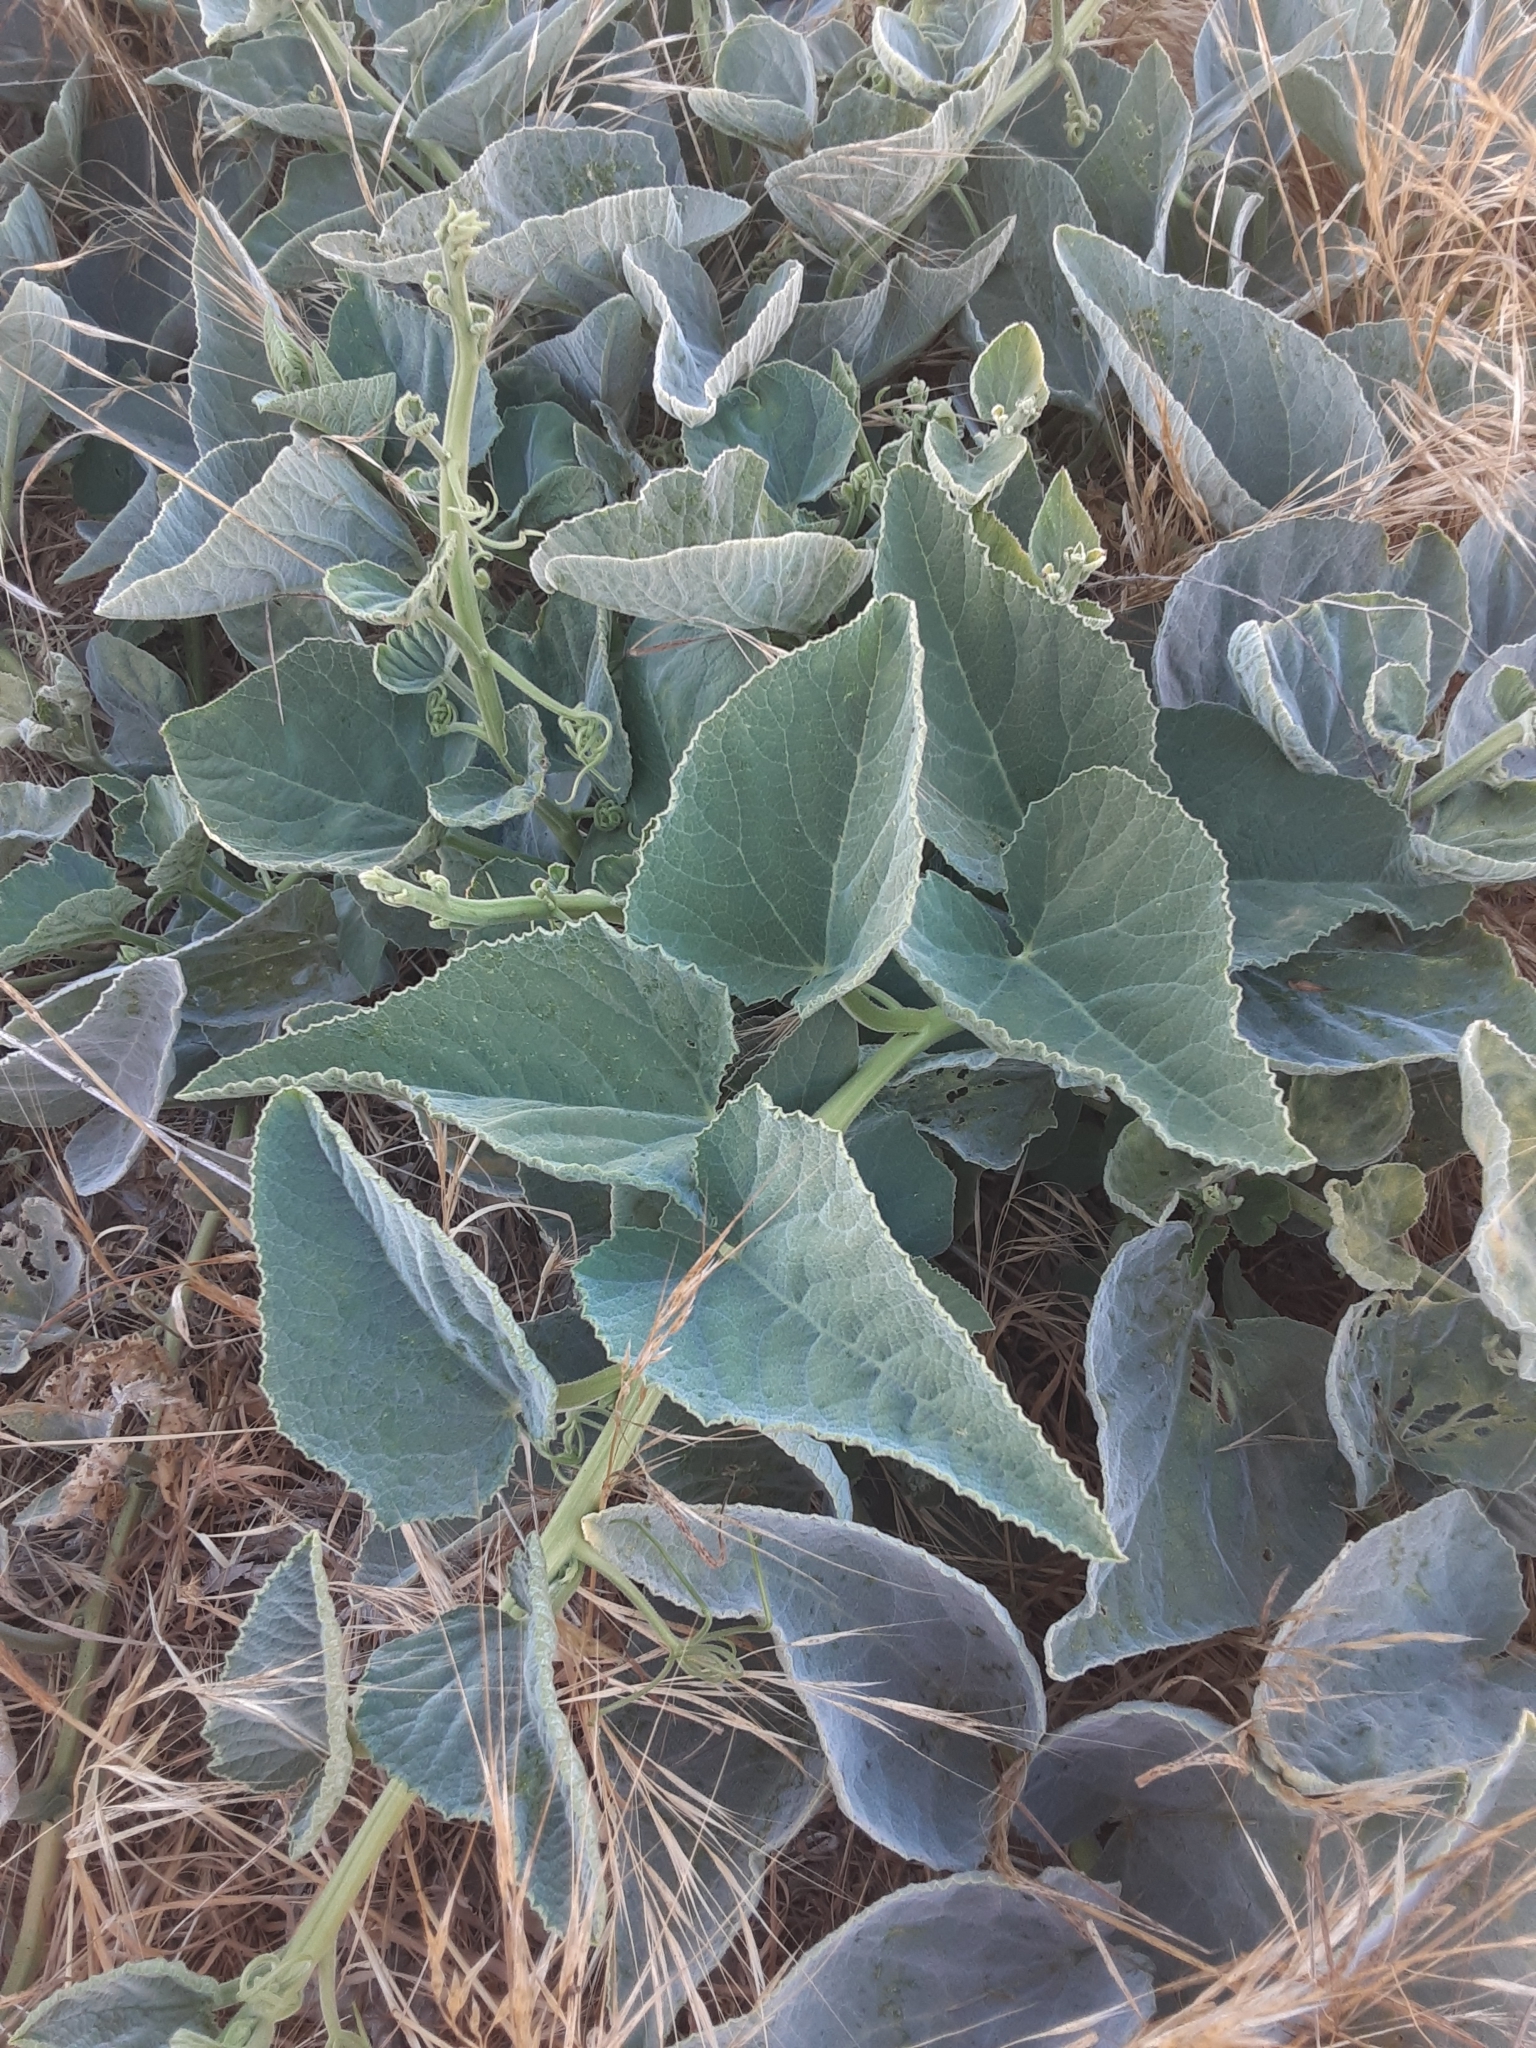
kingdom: Plantae
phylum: Tracheophyta
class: Magnoliopsida
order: Cucurbitales
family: Cucurbitaceae
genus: Cucurbita
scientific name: Cucurbita foetidissima
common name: Buffalo gourd
